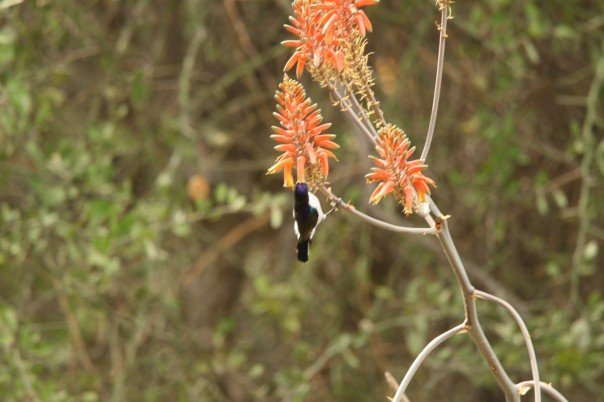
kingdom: Animalia
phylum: Chordata
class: Aves
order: Passeriformes
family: Nectariniidae
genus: Anthreptes
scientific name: Anthreptes orientalis
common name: Eastern violet-backed sunbird
